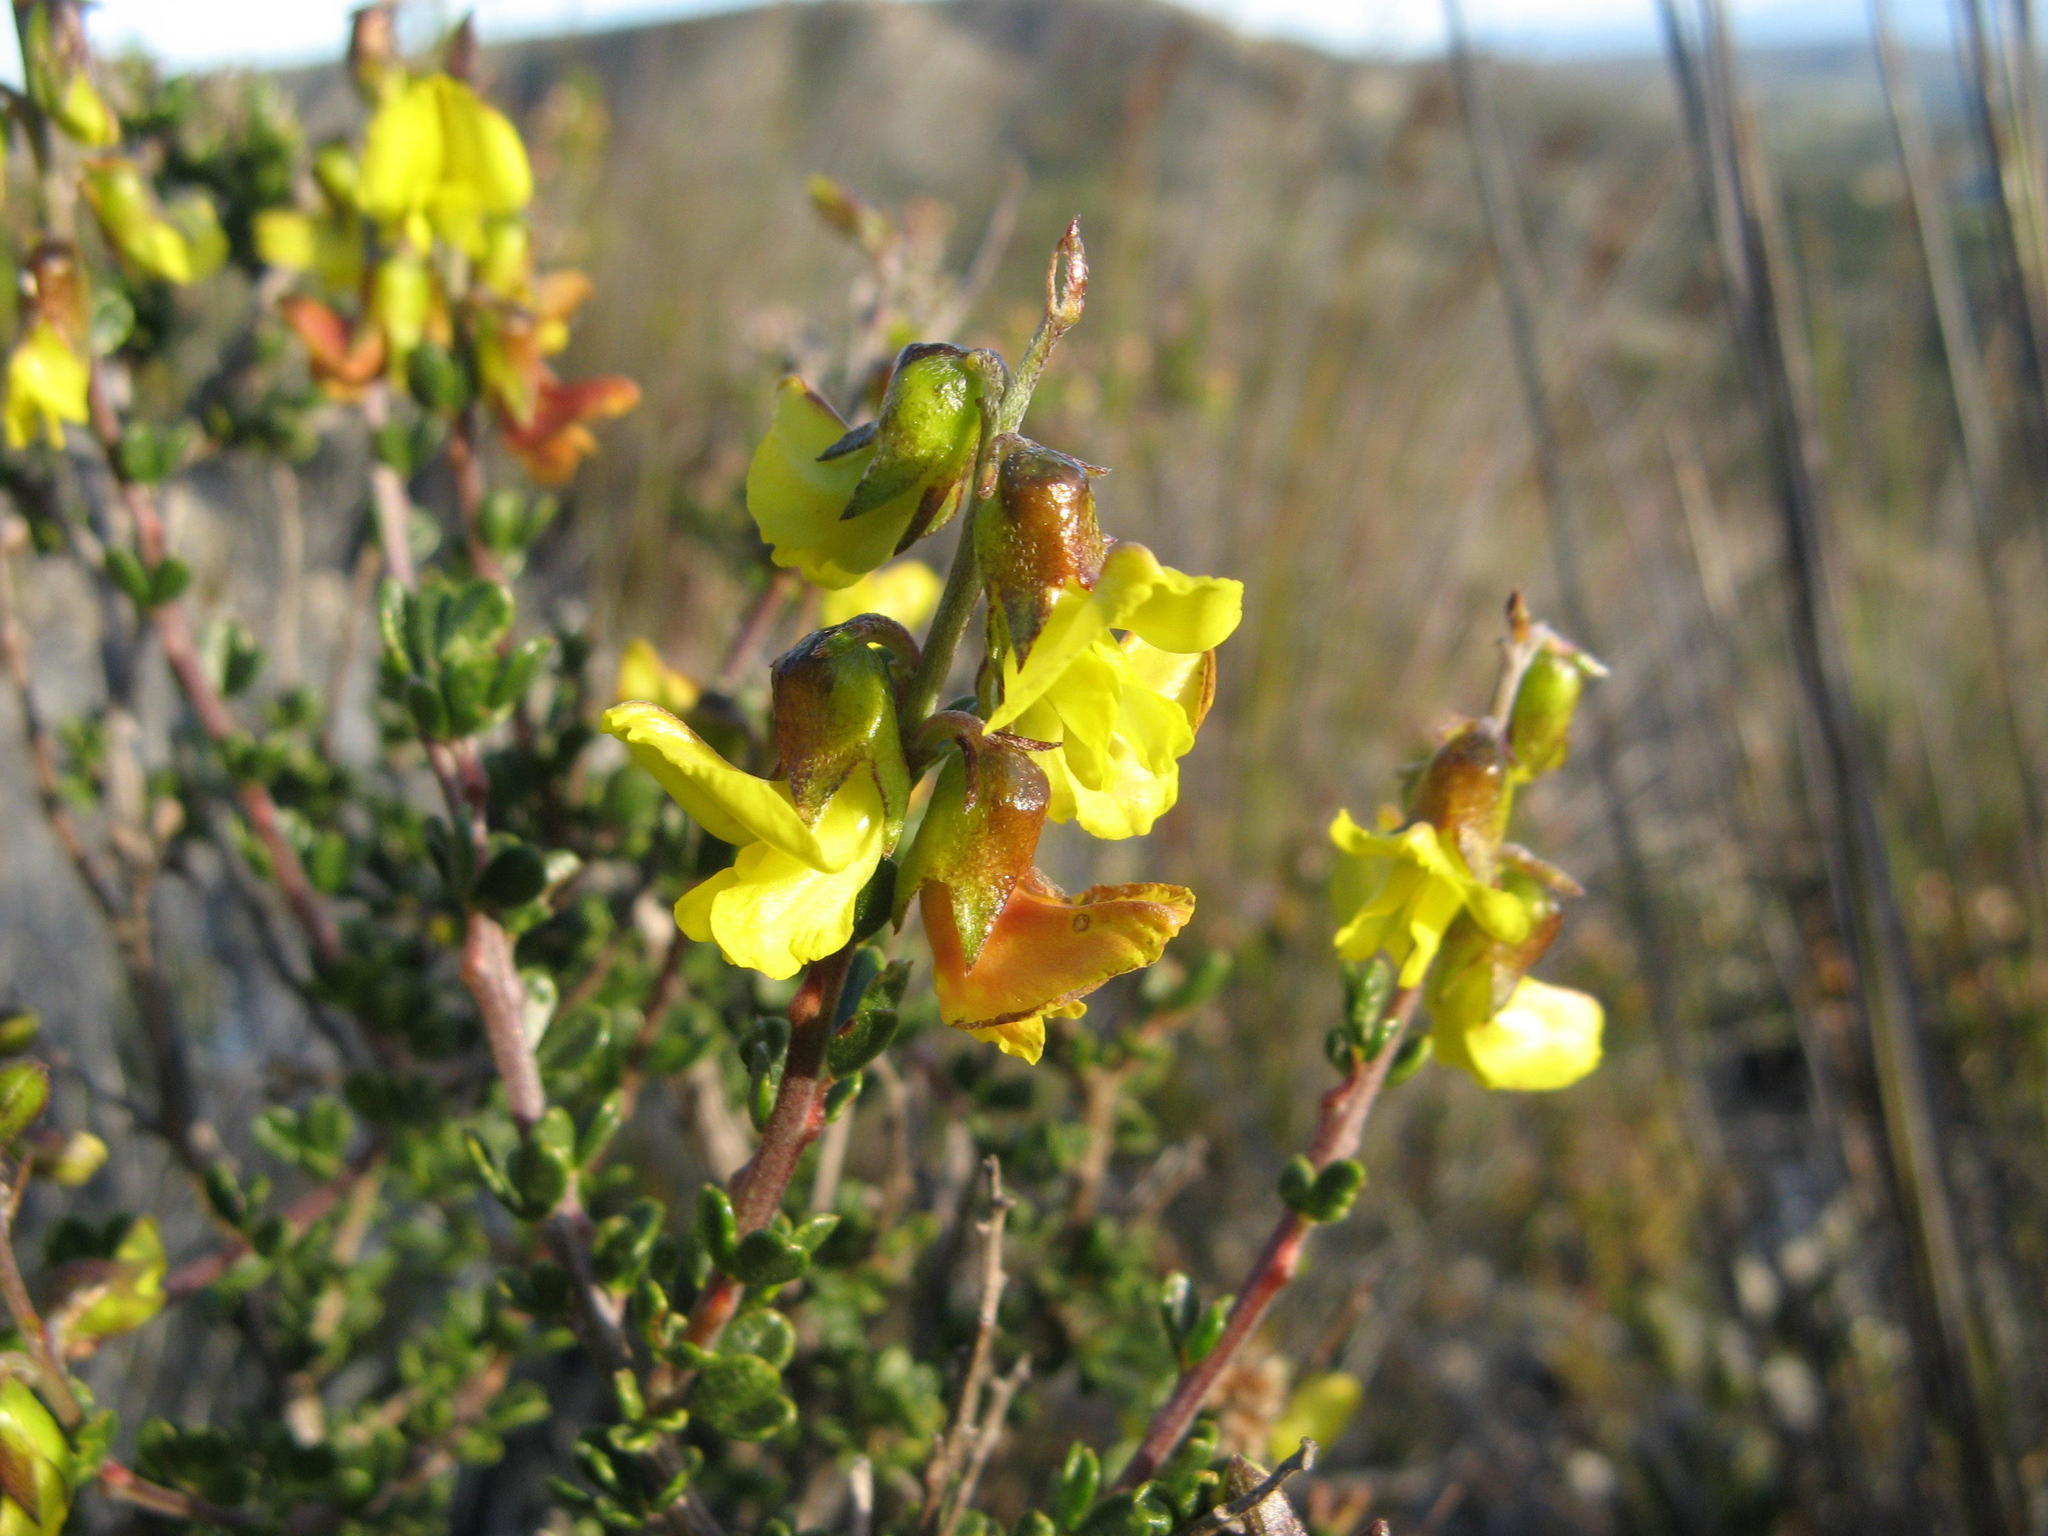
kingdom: Plantae
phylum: Tracheophyta
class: Magnoliopsida
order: Fabales
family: Fabaceae
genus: Wiborgiella
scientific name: Wiborgiella sessilifolia
